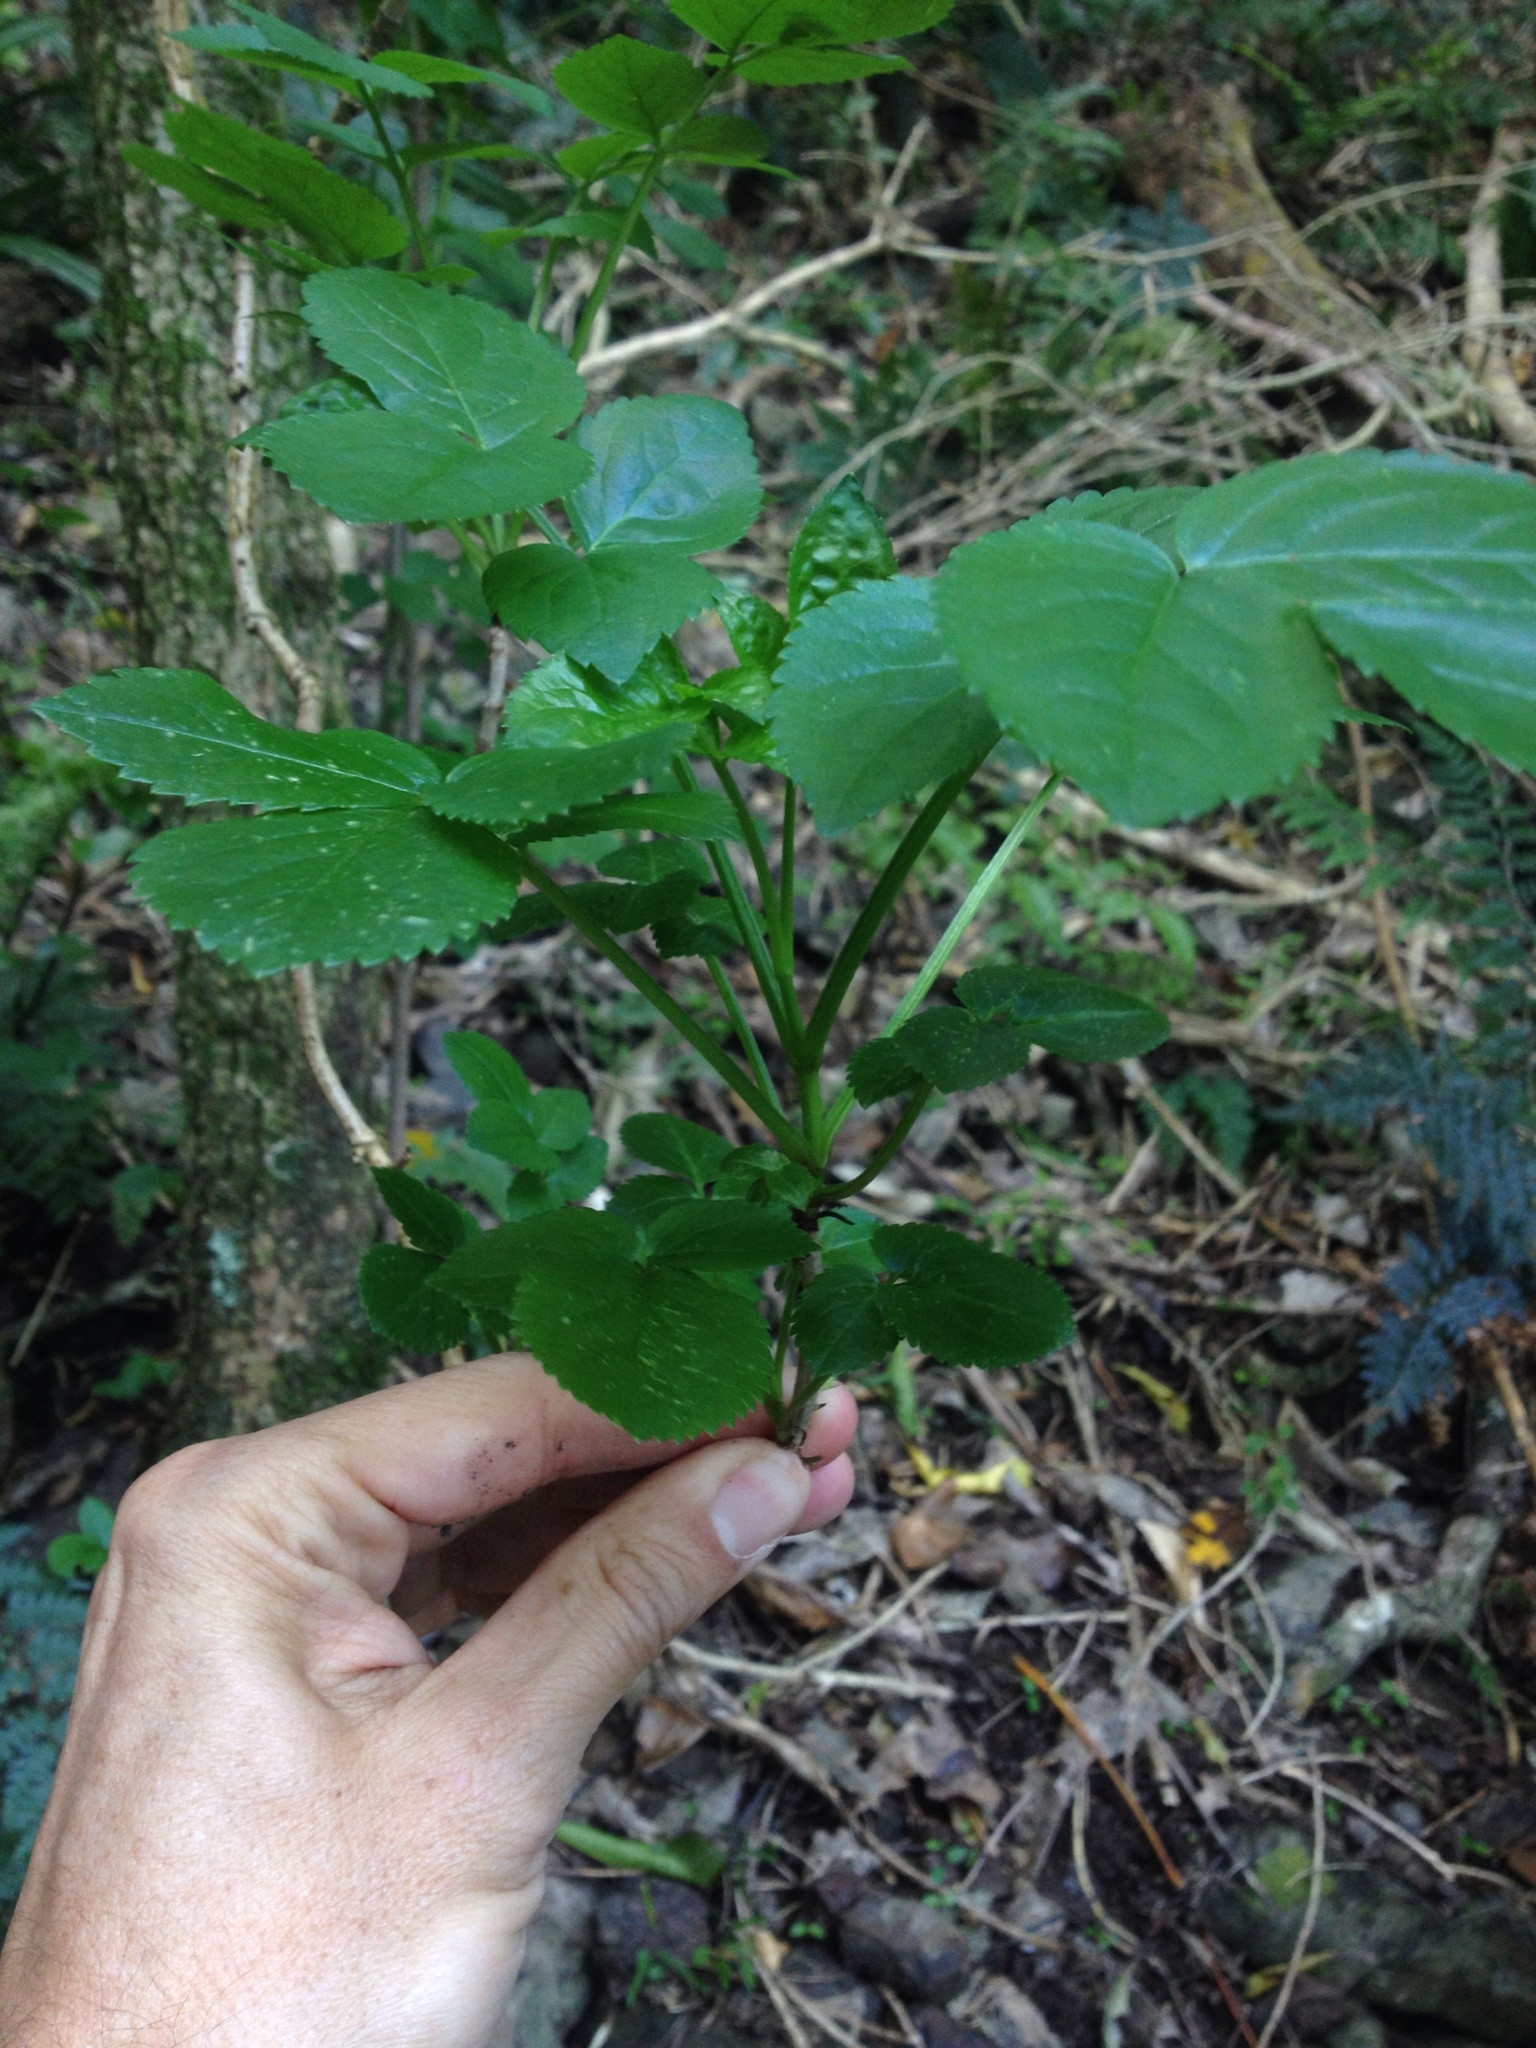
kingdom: Plantae
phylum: Tracheophyta
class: Magnoliopsida
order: Dipsacales
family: Viburnaceae
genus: Sambucus
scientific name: Sambucus nigra
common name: Elder
